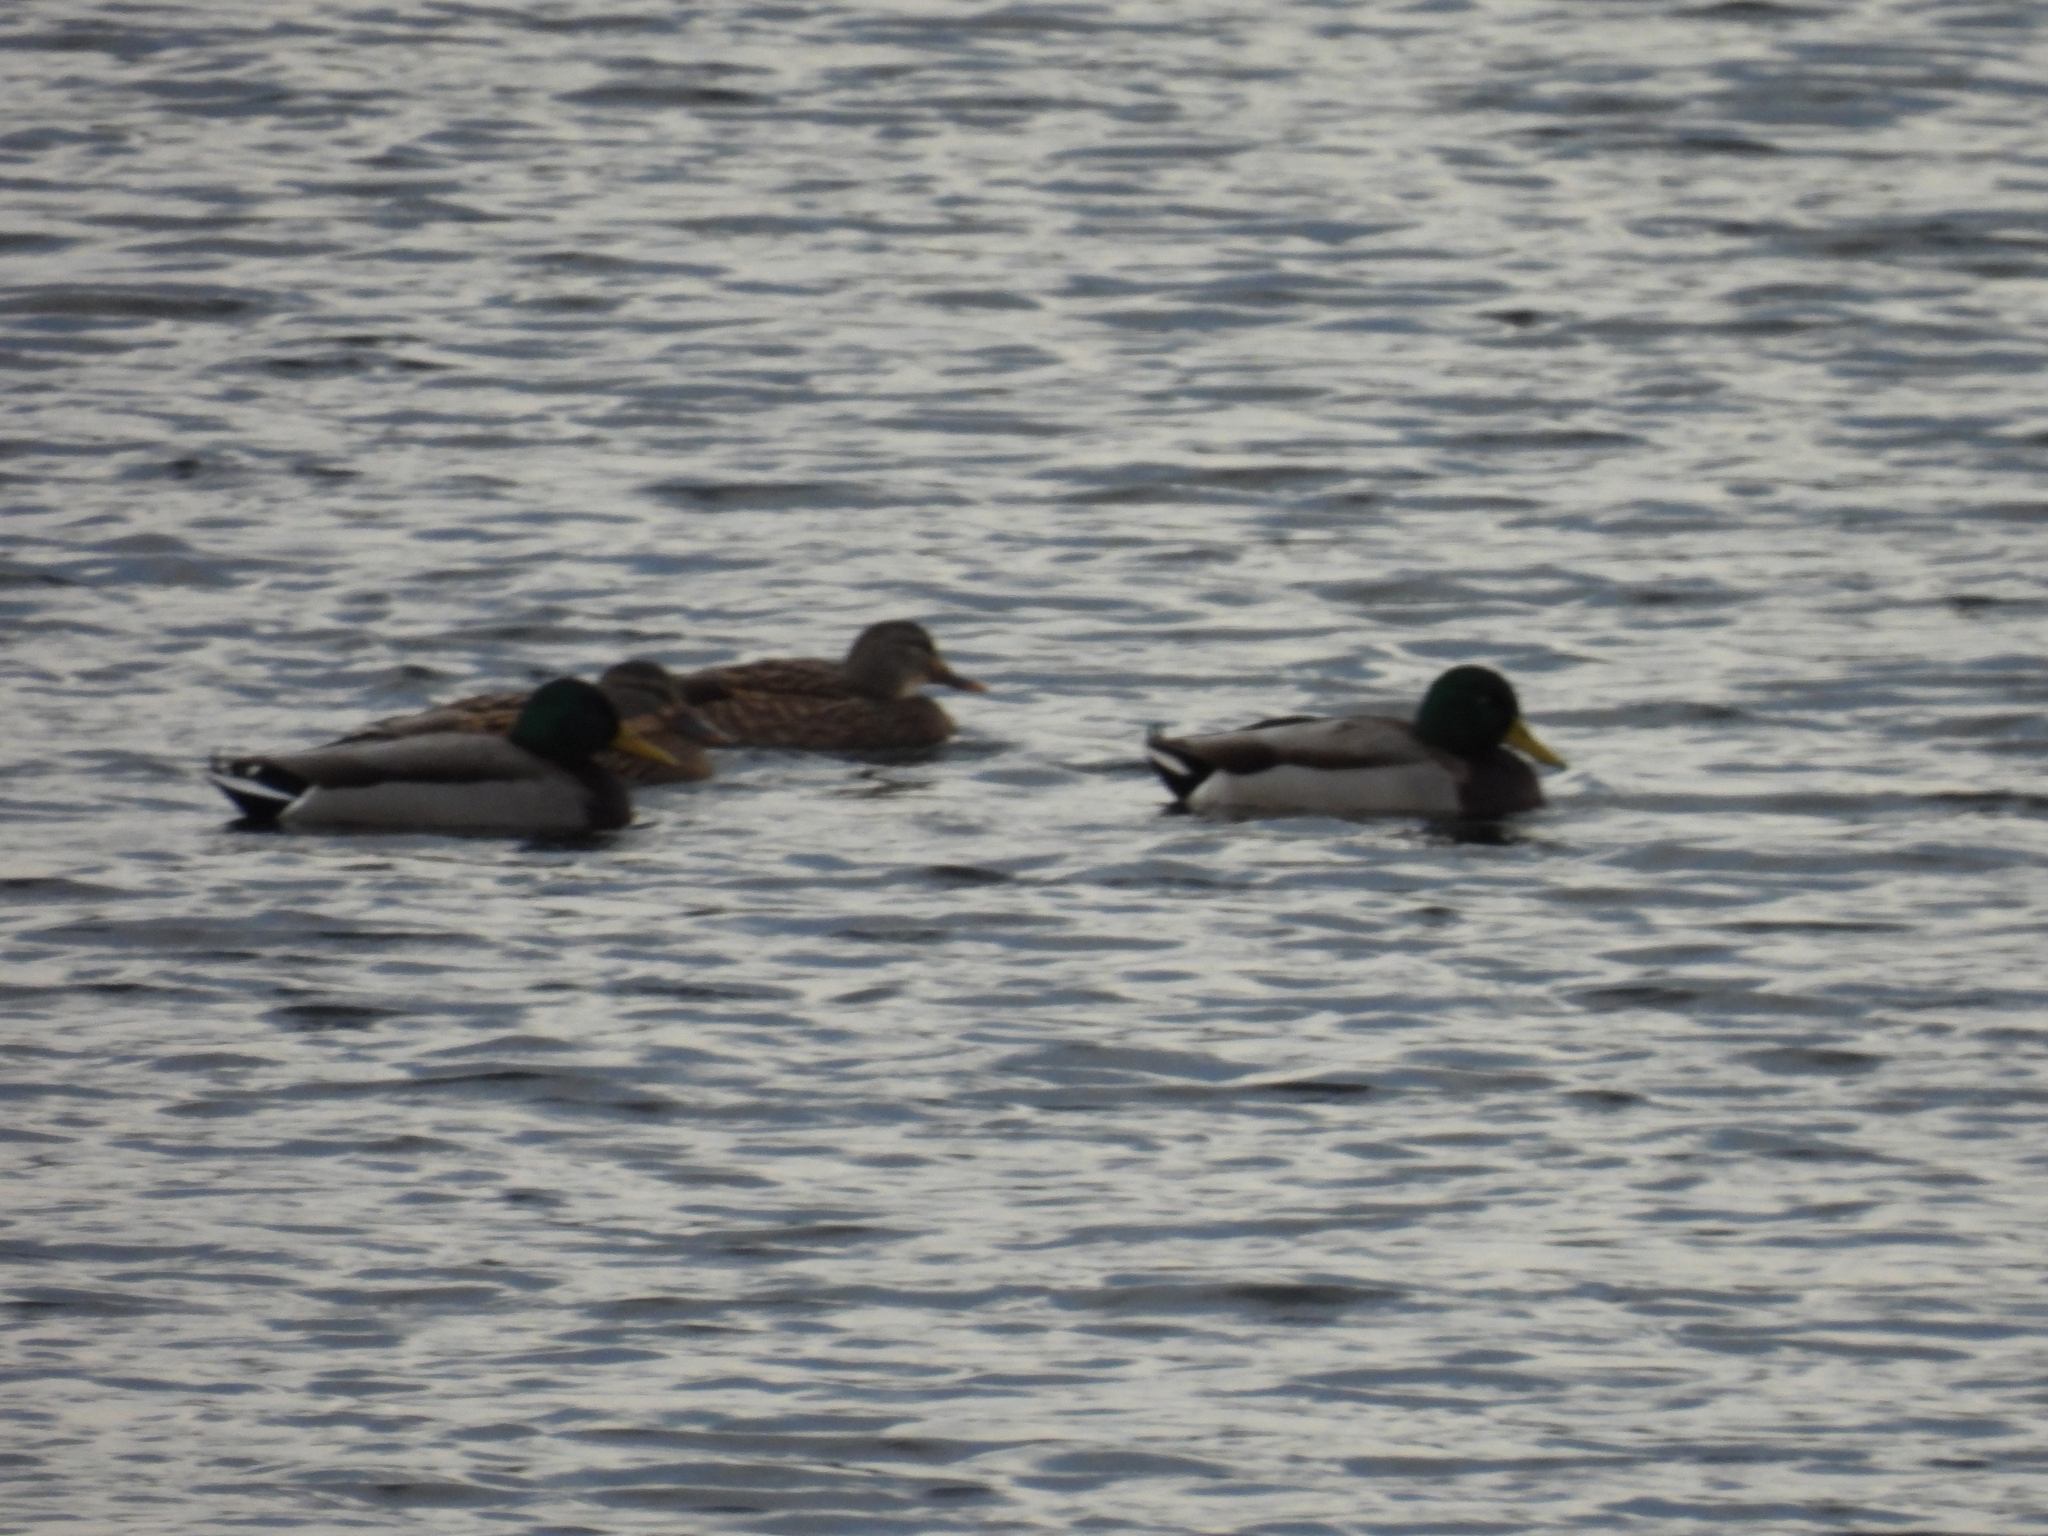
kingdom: Animalia
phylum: Chordata
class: Aves
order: Anseriformes
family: Anatidae
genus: Anas
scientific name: Anas platyrhynchos
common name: Mallard
